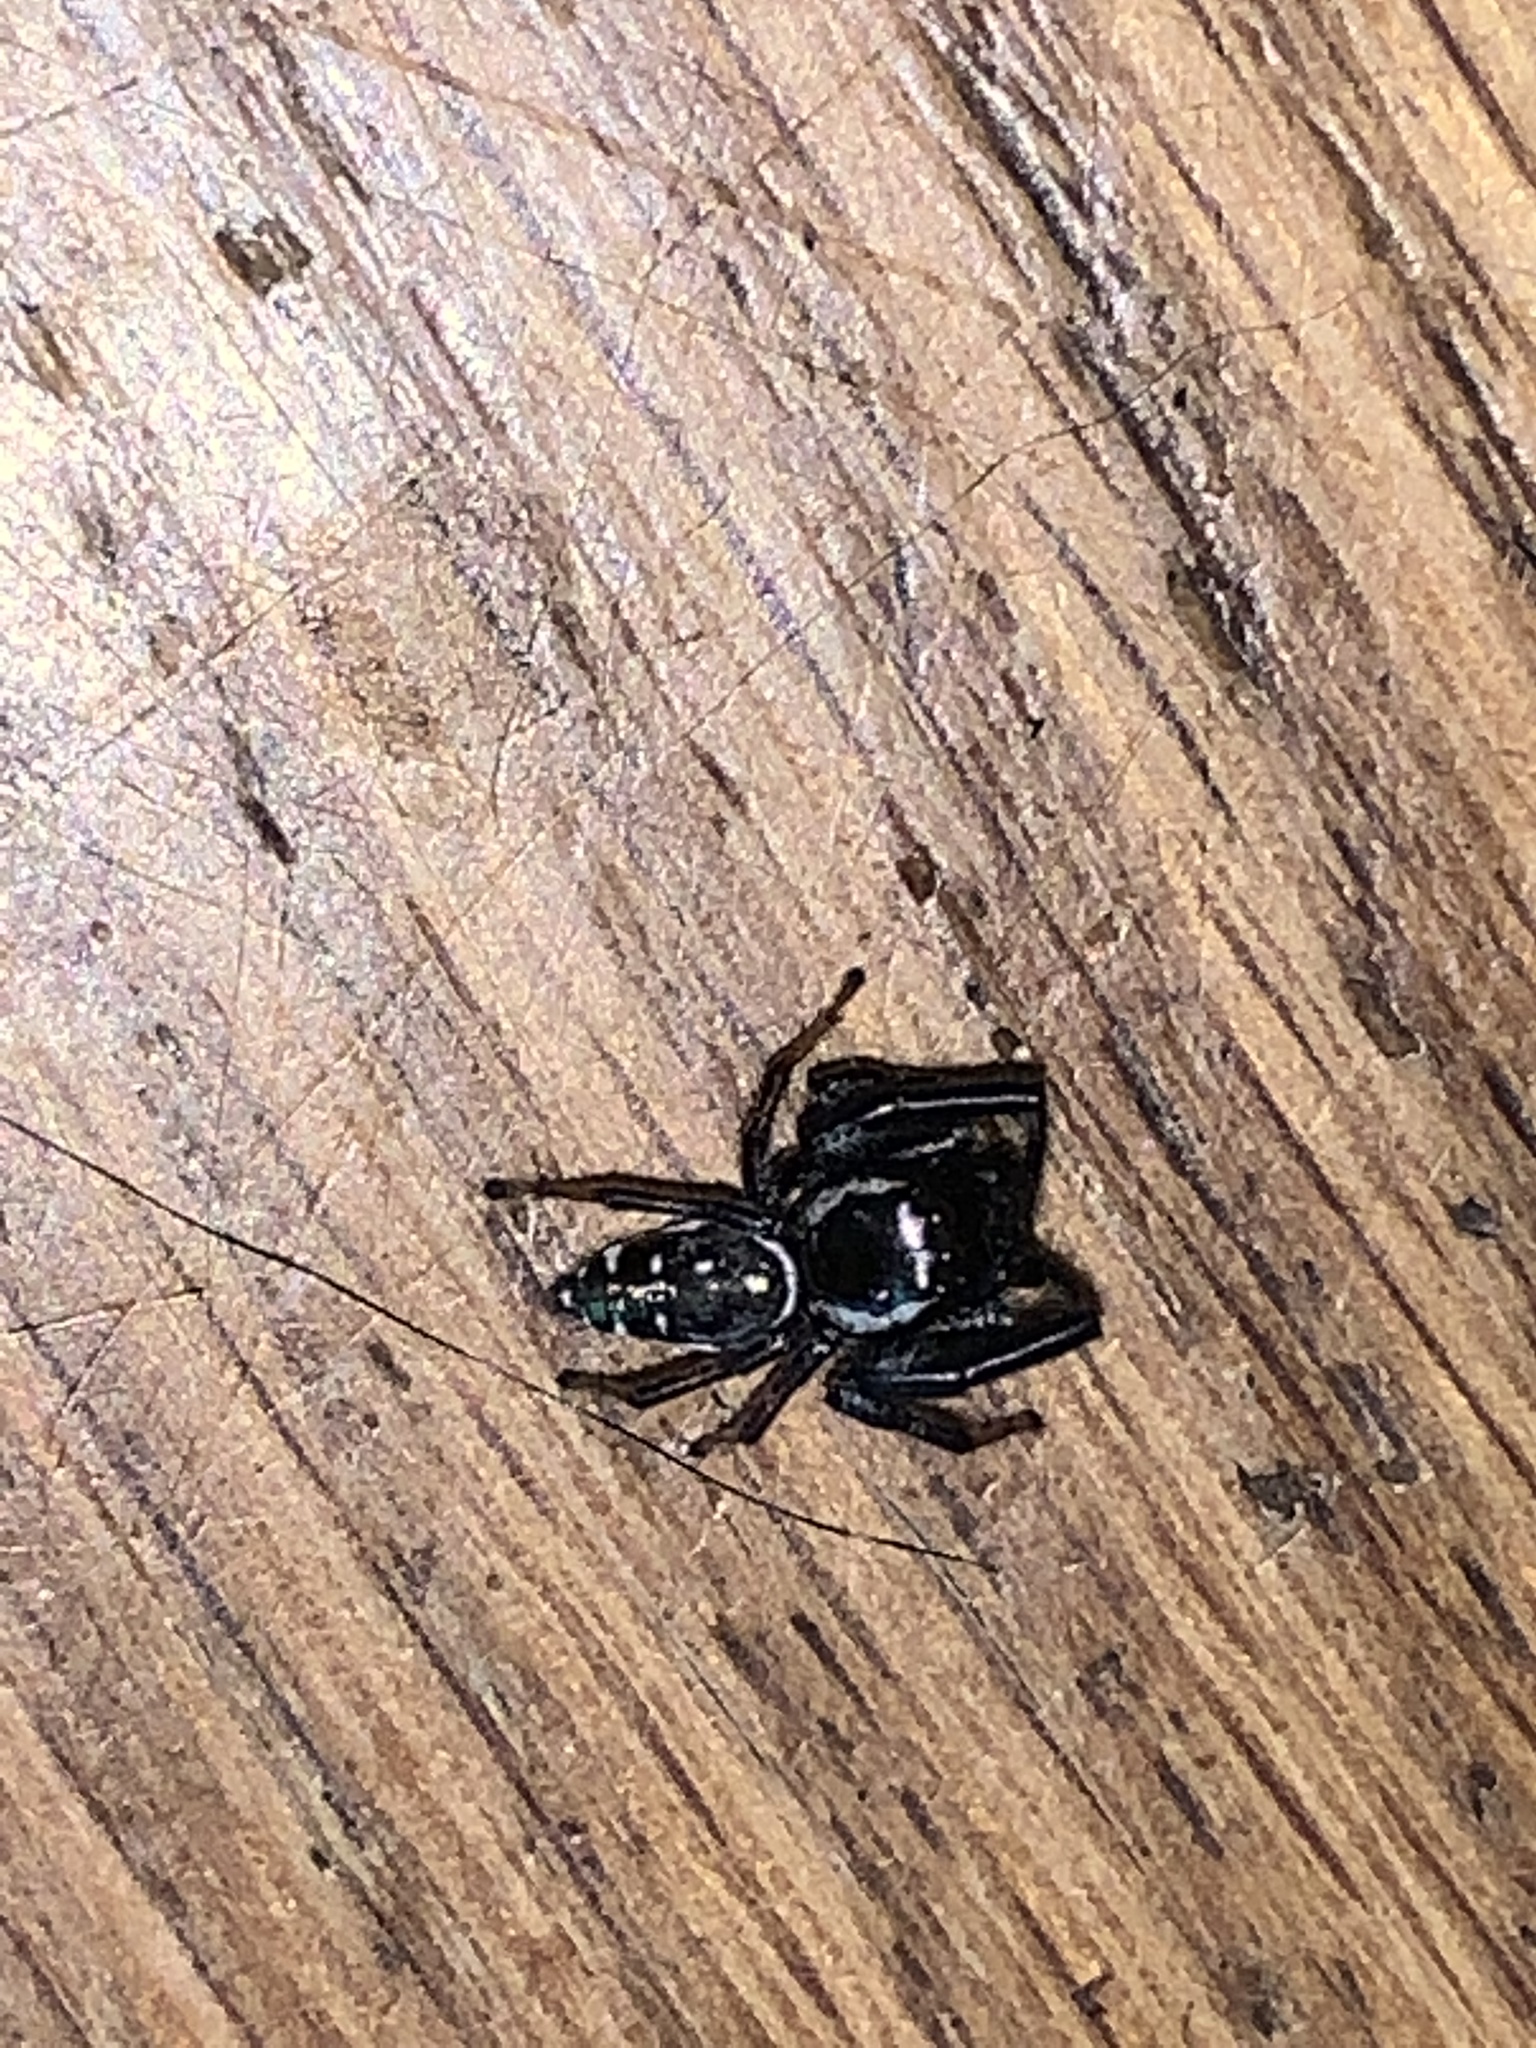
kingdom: Animalia
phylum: Arthropoda
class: Arachnida
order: Araneae
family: Salticidae
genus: Paraphidippus
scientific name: Paraphidippus aurantius
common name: Jumping spiders
